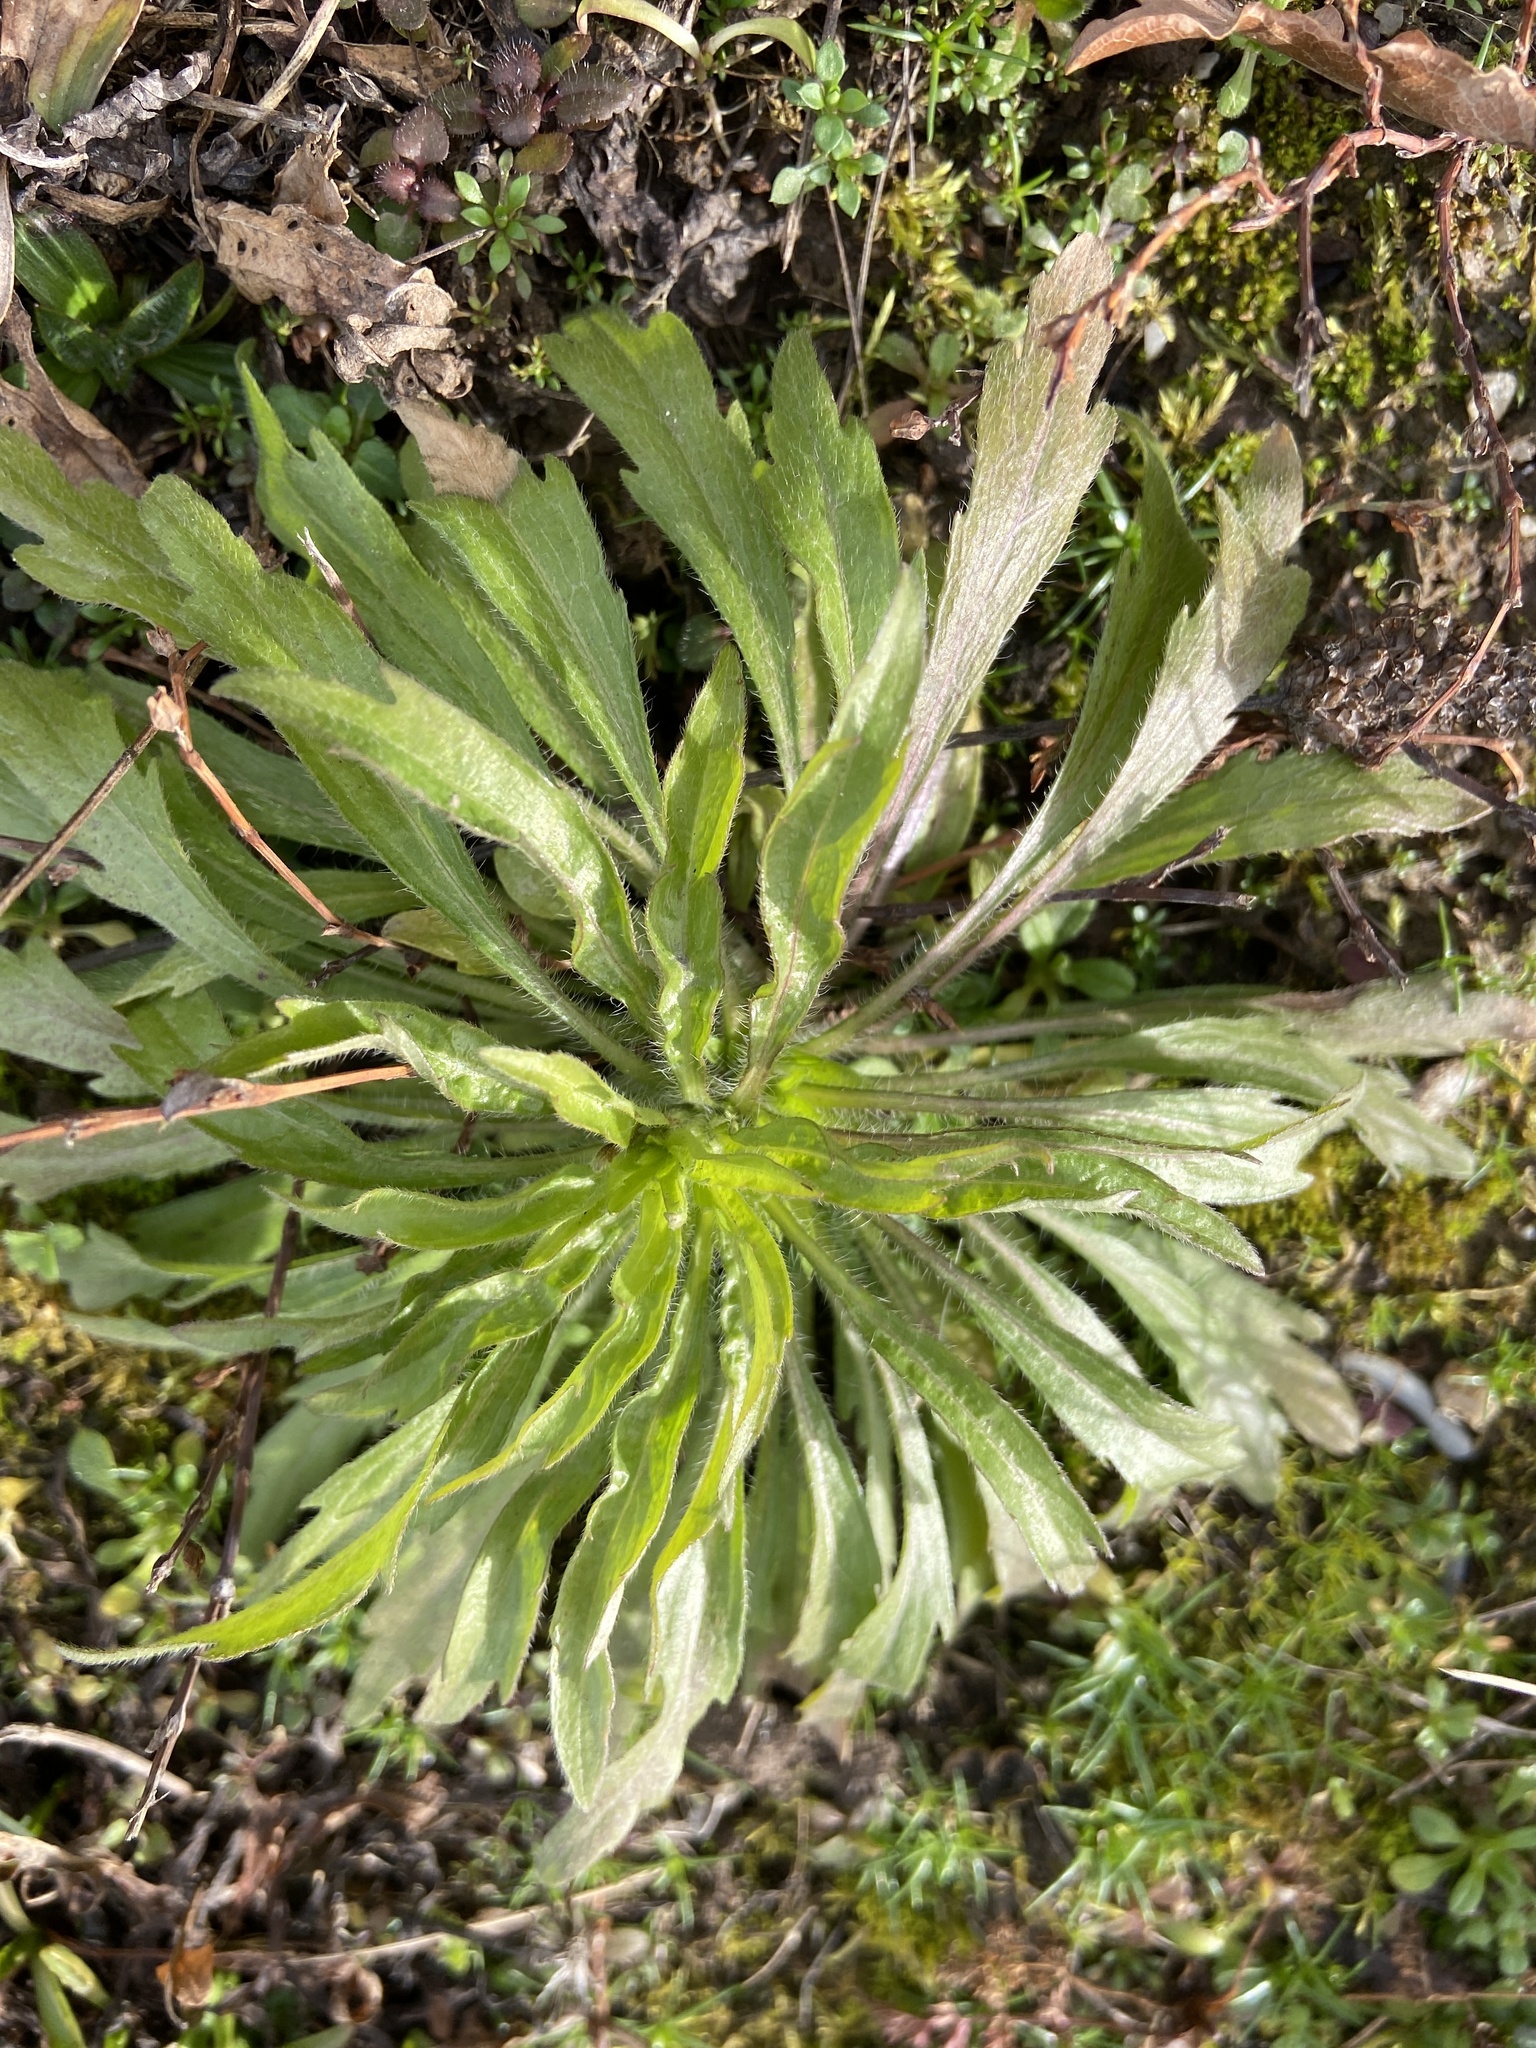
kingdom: Plantae
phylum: Tracheophyta
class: Magnoliopsida
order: Asterales
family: Asteraceae
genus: Erigeron
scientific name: Erigeron canadensis
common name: Canadian fleabane
